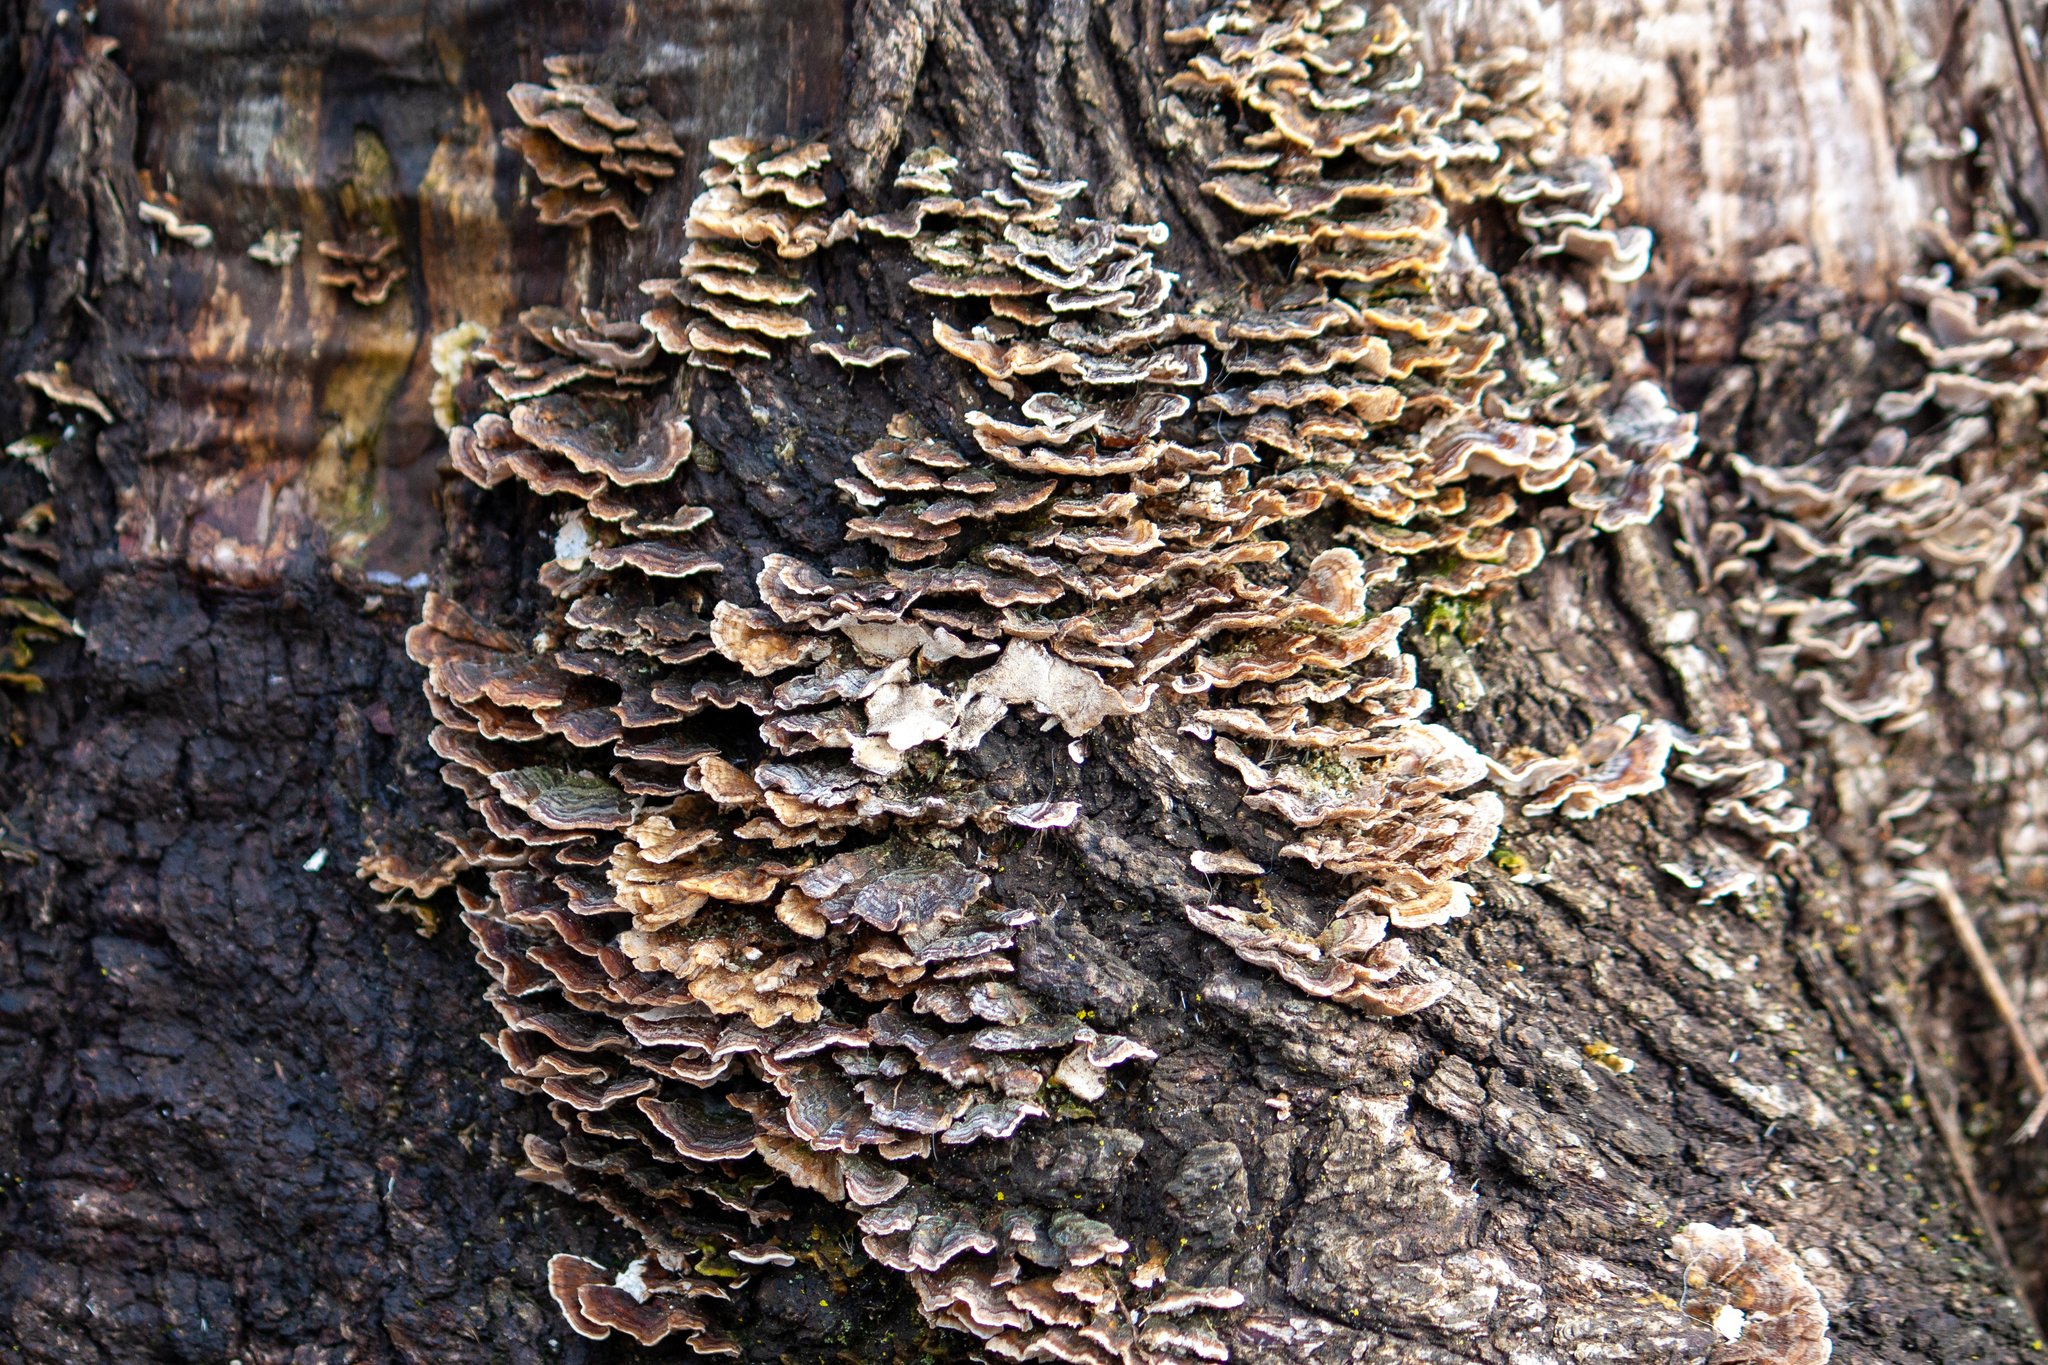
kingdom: Fungi
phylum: Basidiomycota
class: Agaricomycetes
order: Polyporales
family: Polyporaceae
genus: Trametes
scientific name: Trametes versicolor
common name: Turkeytail
